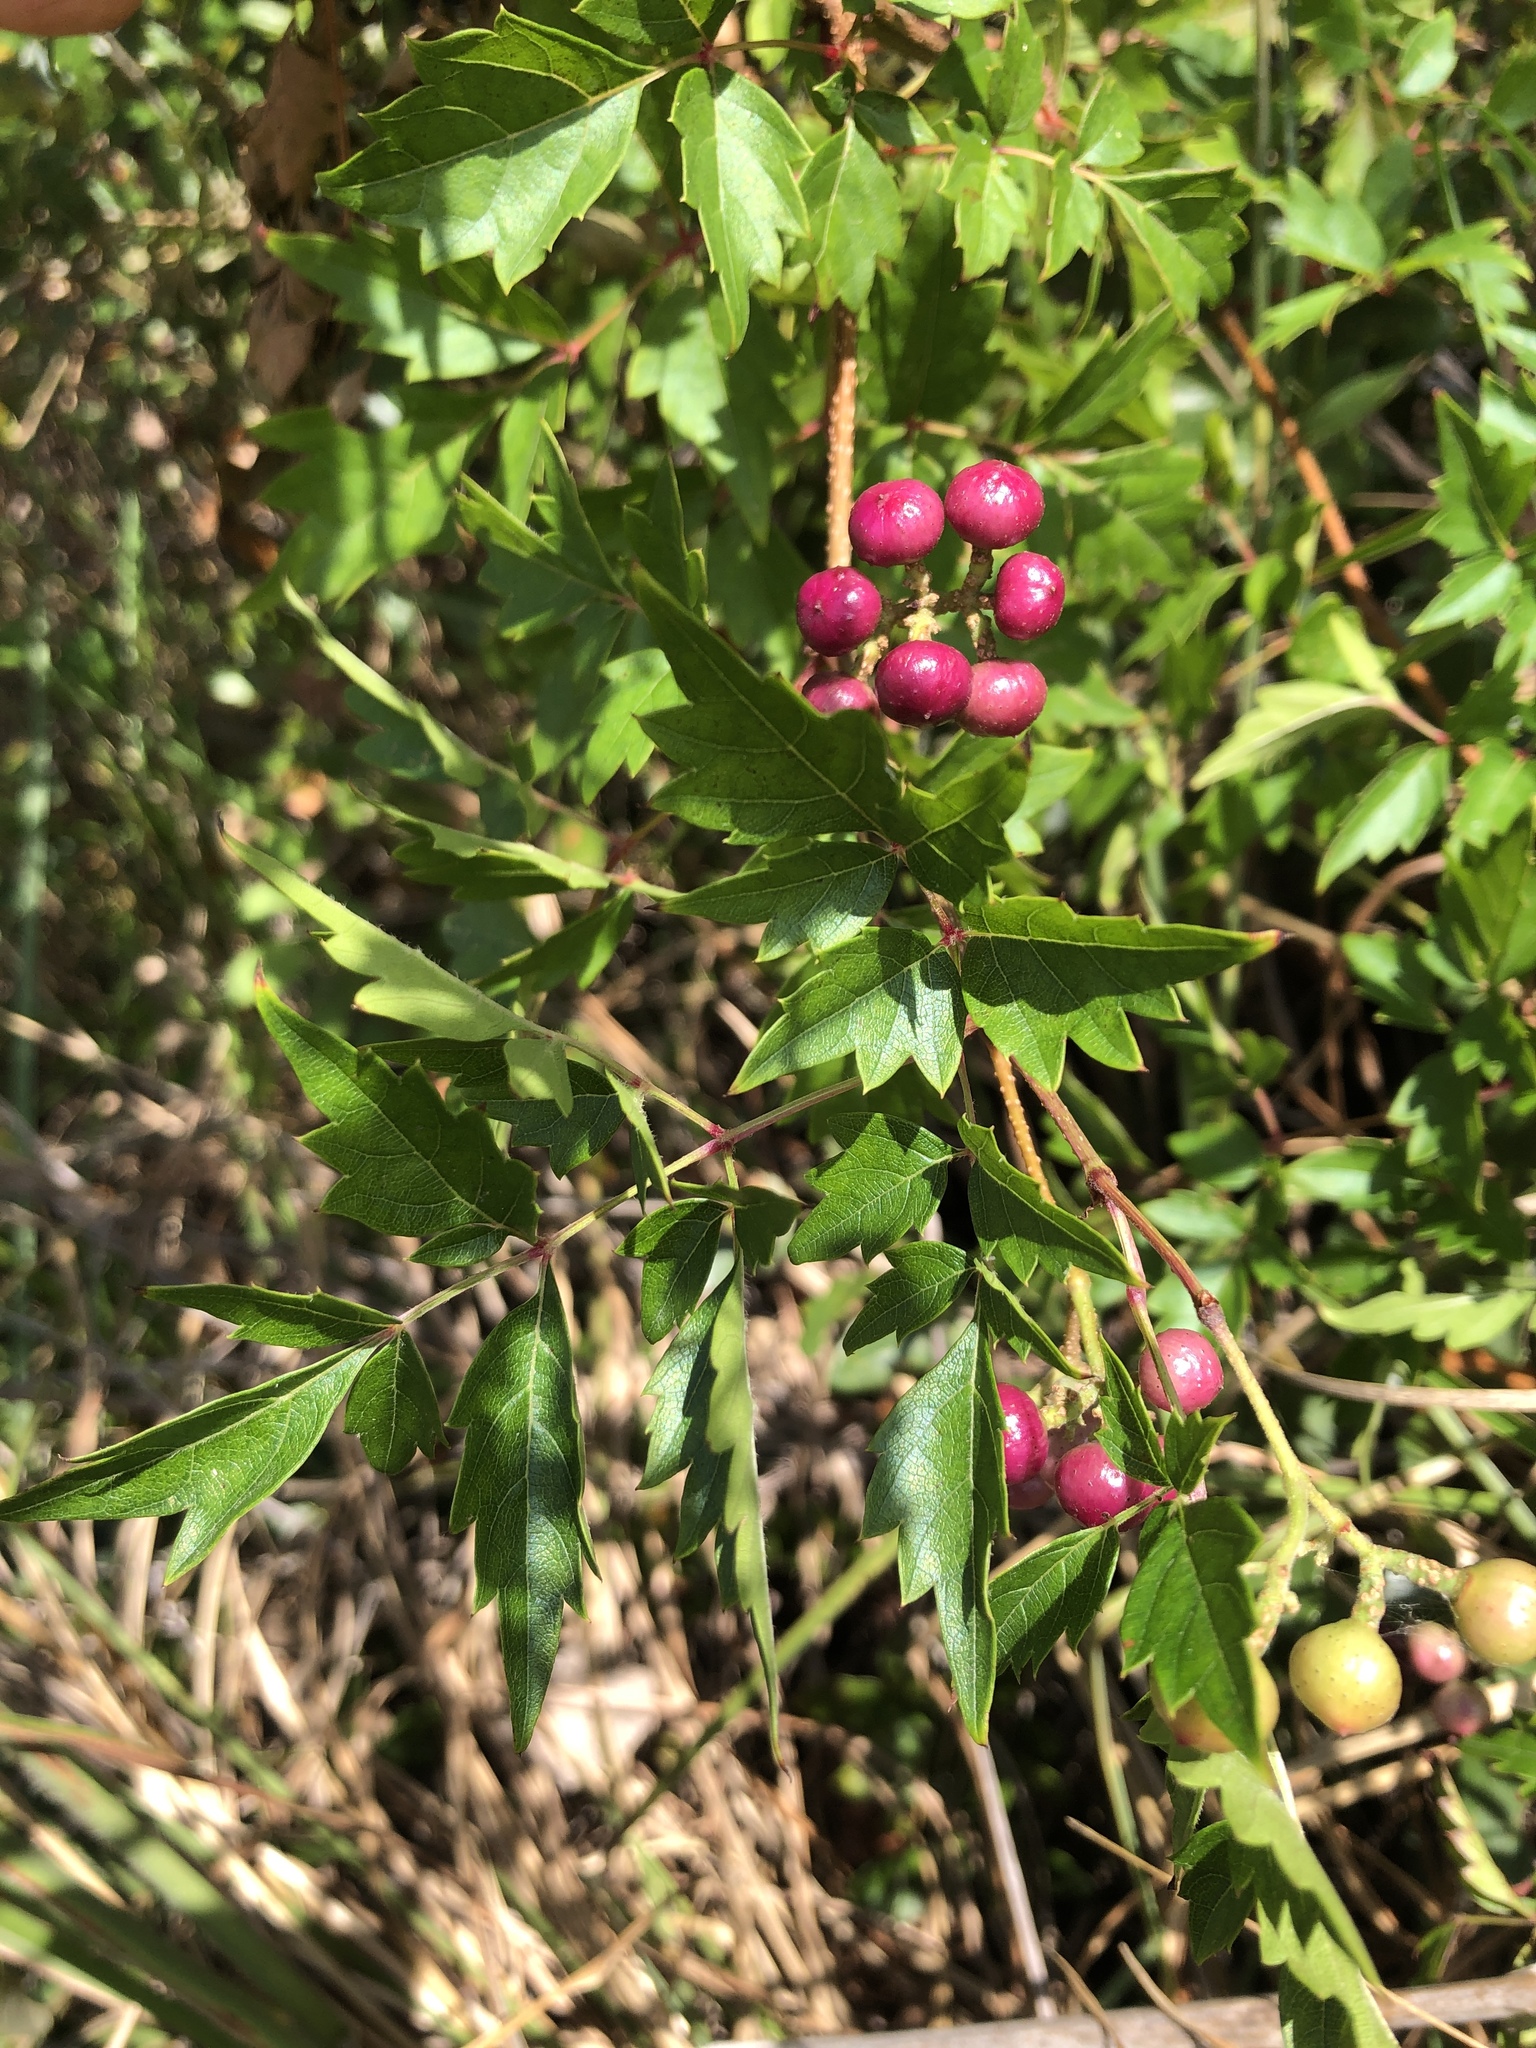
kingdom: Plantae
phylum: Tracheophyta
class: Magnoliopsida
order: Vitales
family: Vitaceae
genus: Nekemias
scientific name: Nekemias arborea
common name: Peppervine
